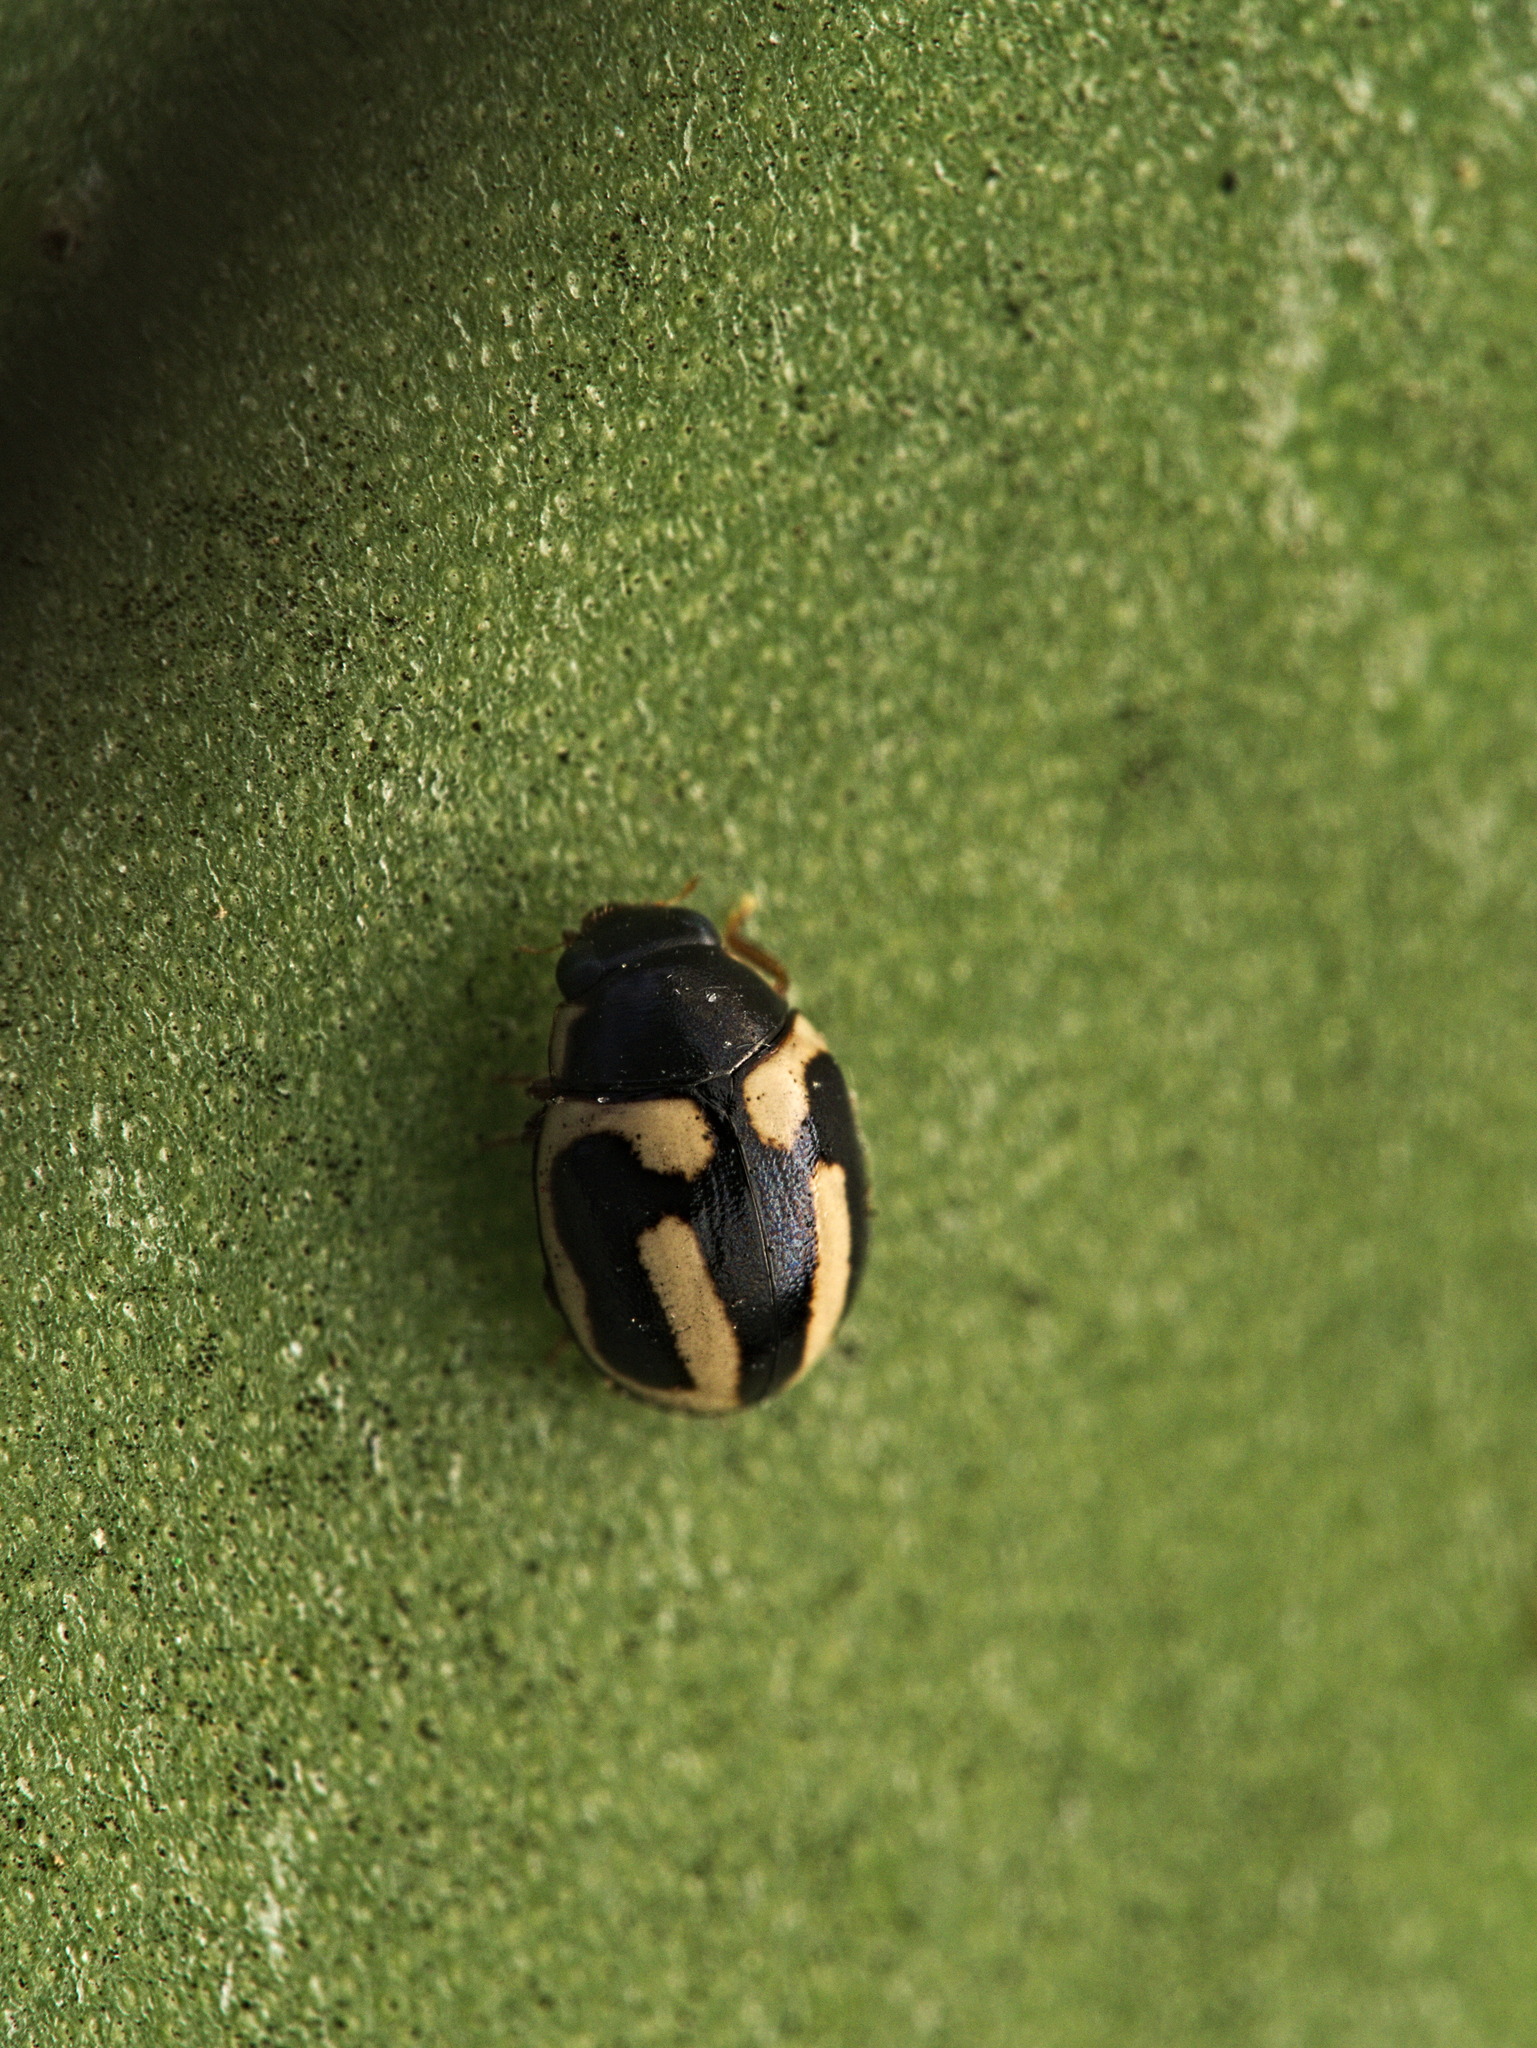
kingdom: Animalia
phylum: Arthropoda
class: Insecta
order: Coleoptera
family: Coccinellidae
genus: Hyperaspis
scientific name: Hyperaspis trifurcata
